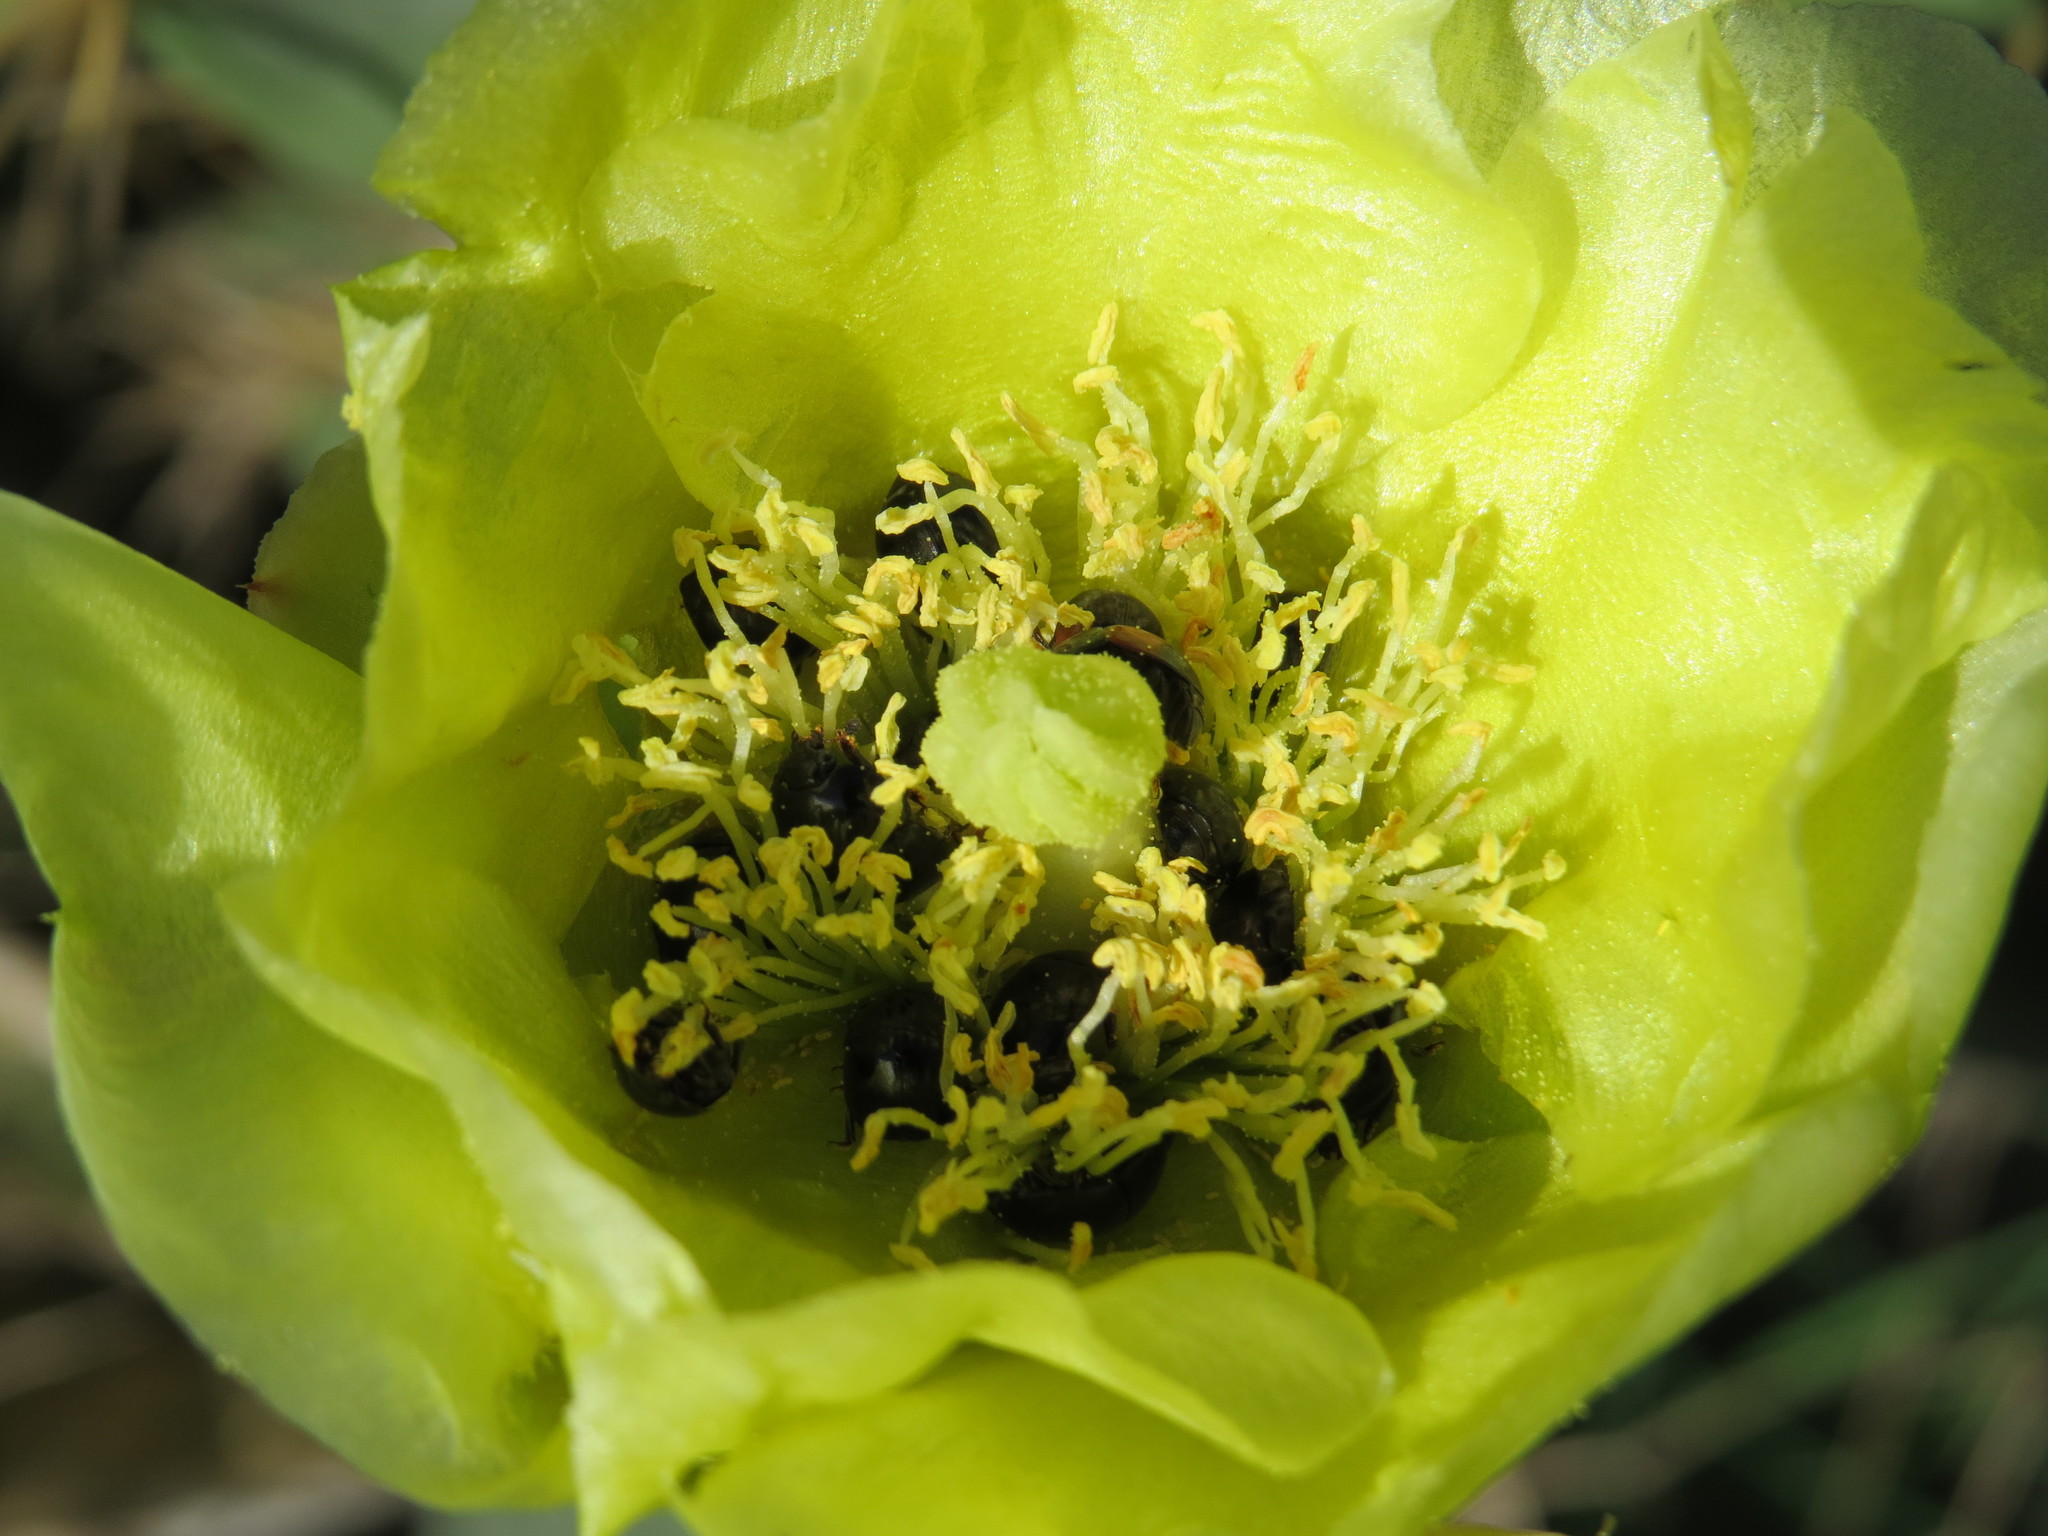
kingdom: Plantae
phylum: Tracheophyta
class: Magnoliopsida
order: Caryophyllales
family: Cactaceae
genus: Opuntia
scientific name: Opuntia dillenii
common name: Sour prickle
